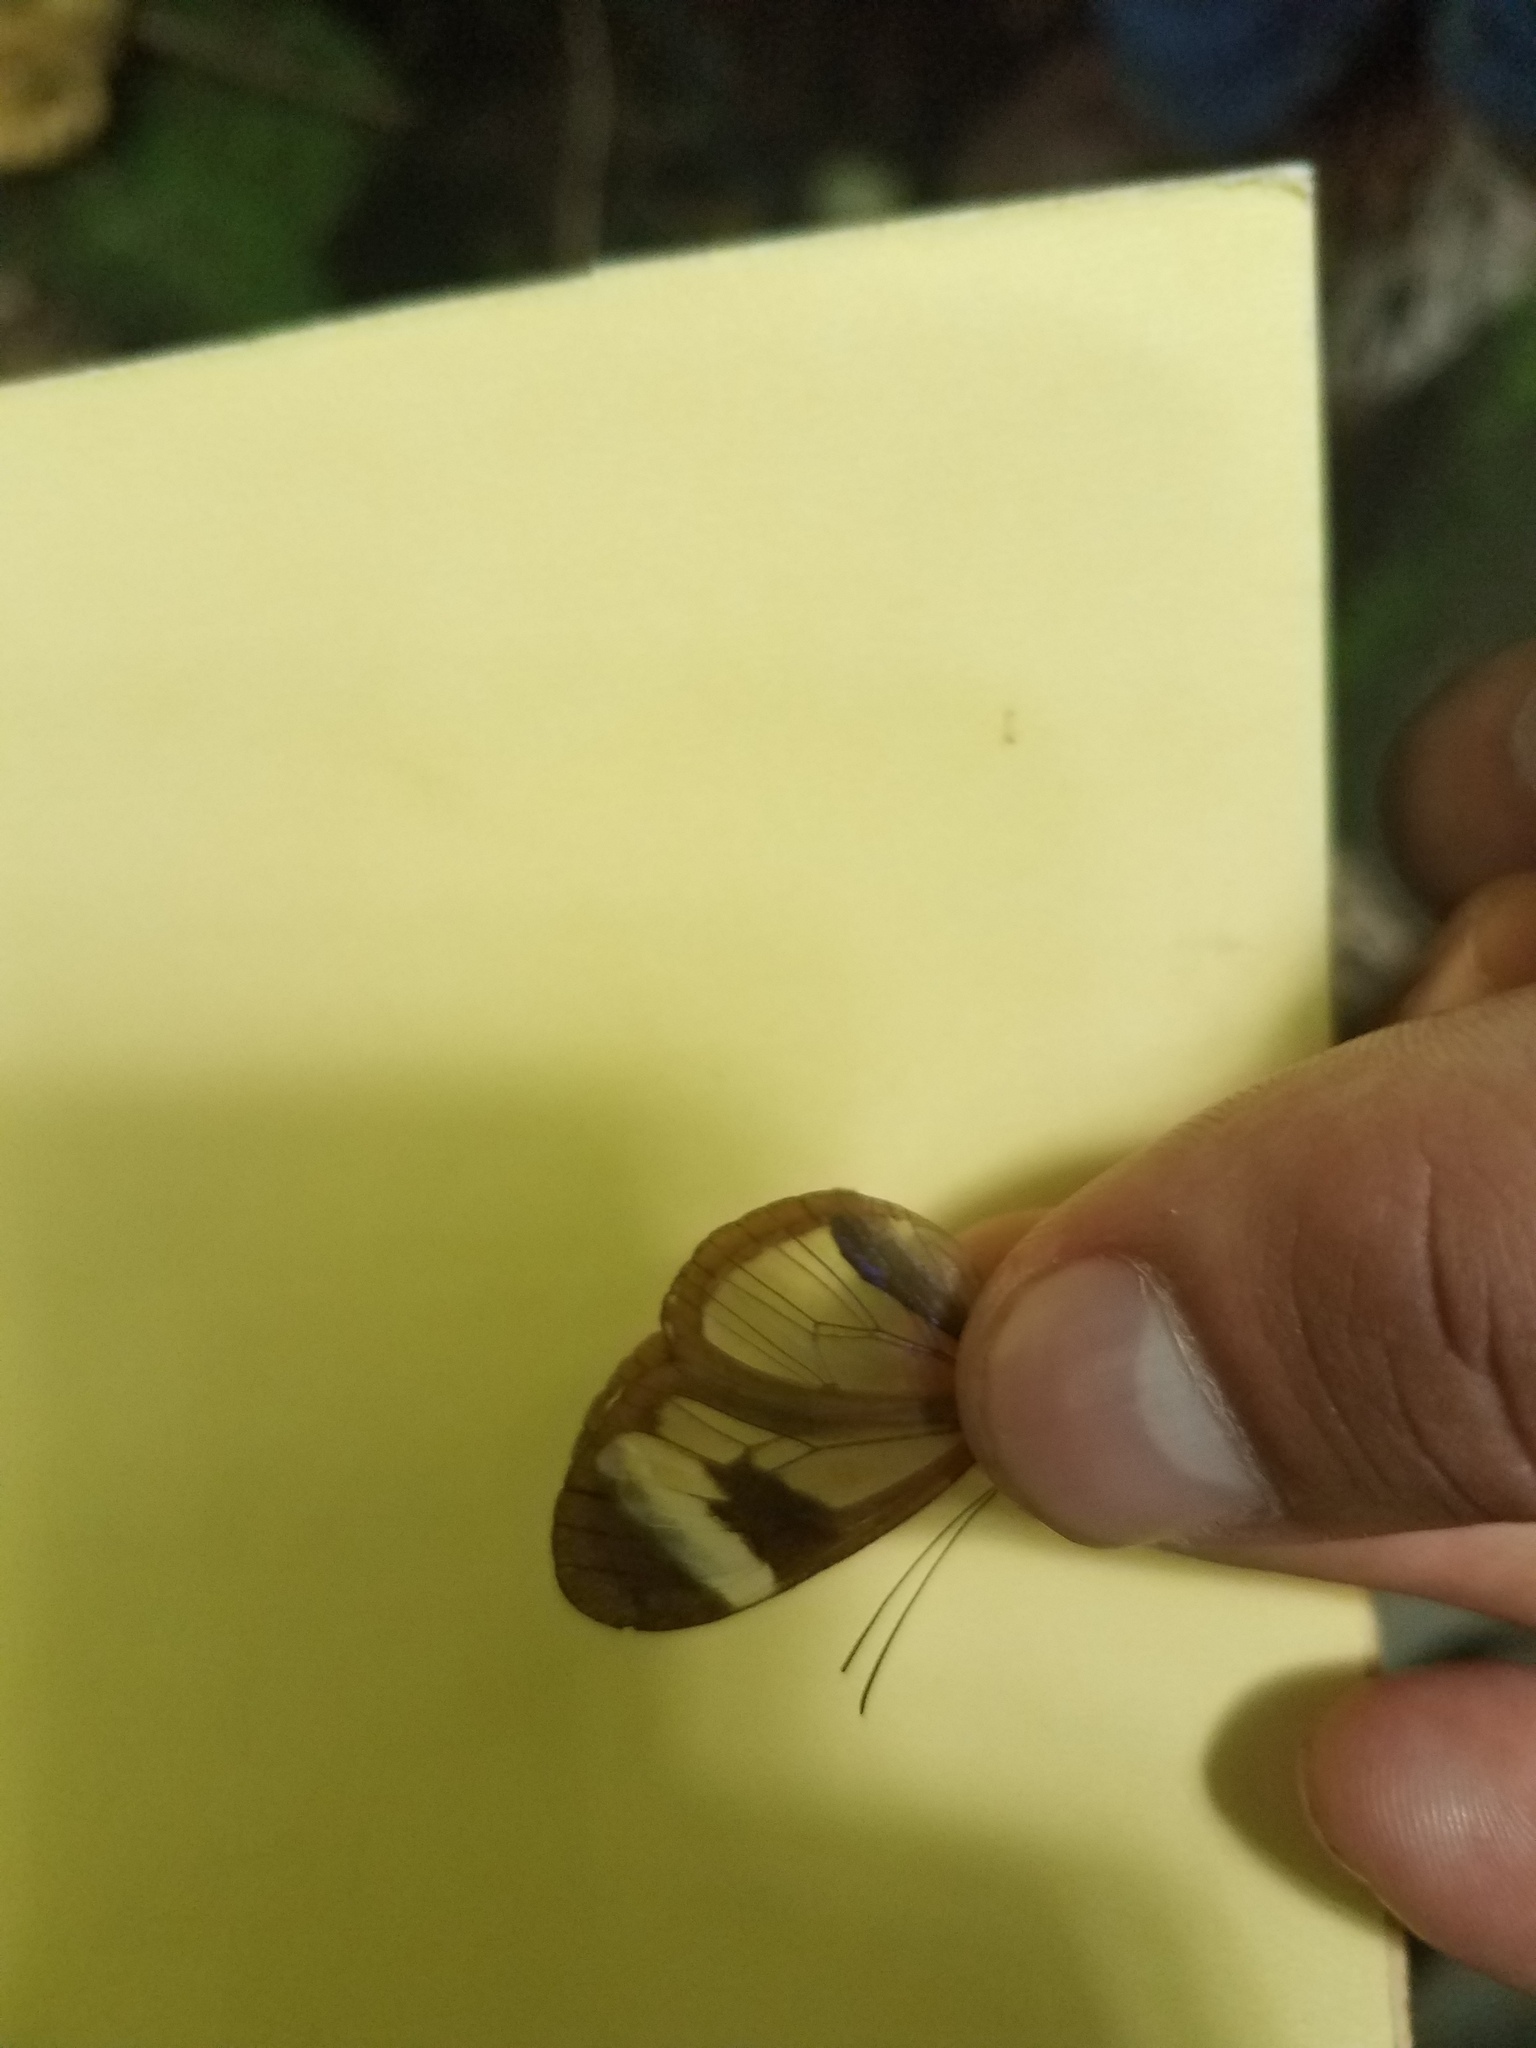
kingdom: Animalia
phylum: Arthropoda
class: Insecta
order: Lepidoptera
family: Nymphalidae
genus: Oleria
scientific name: Oleria paula
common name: Paula's clearwing
